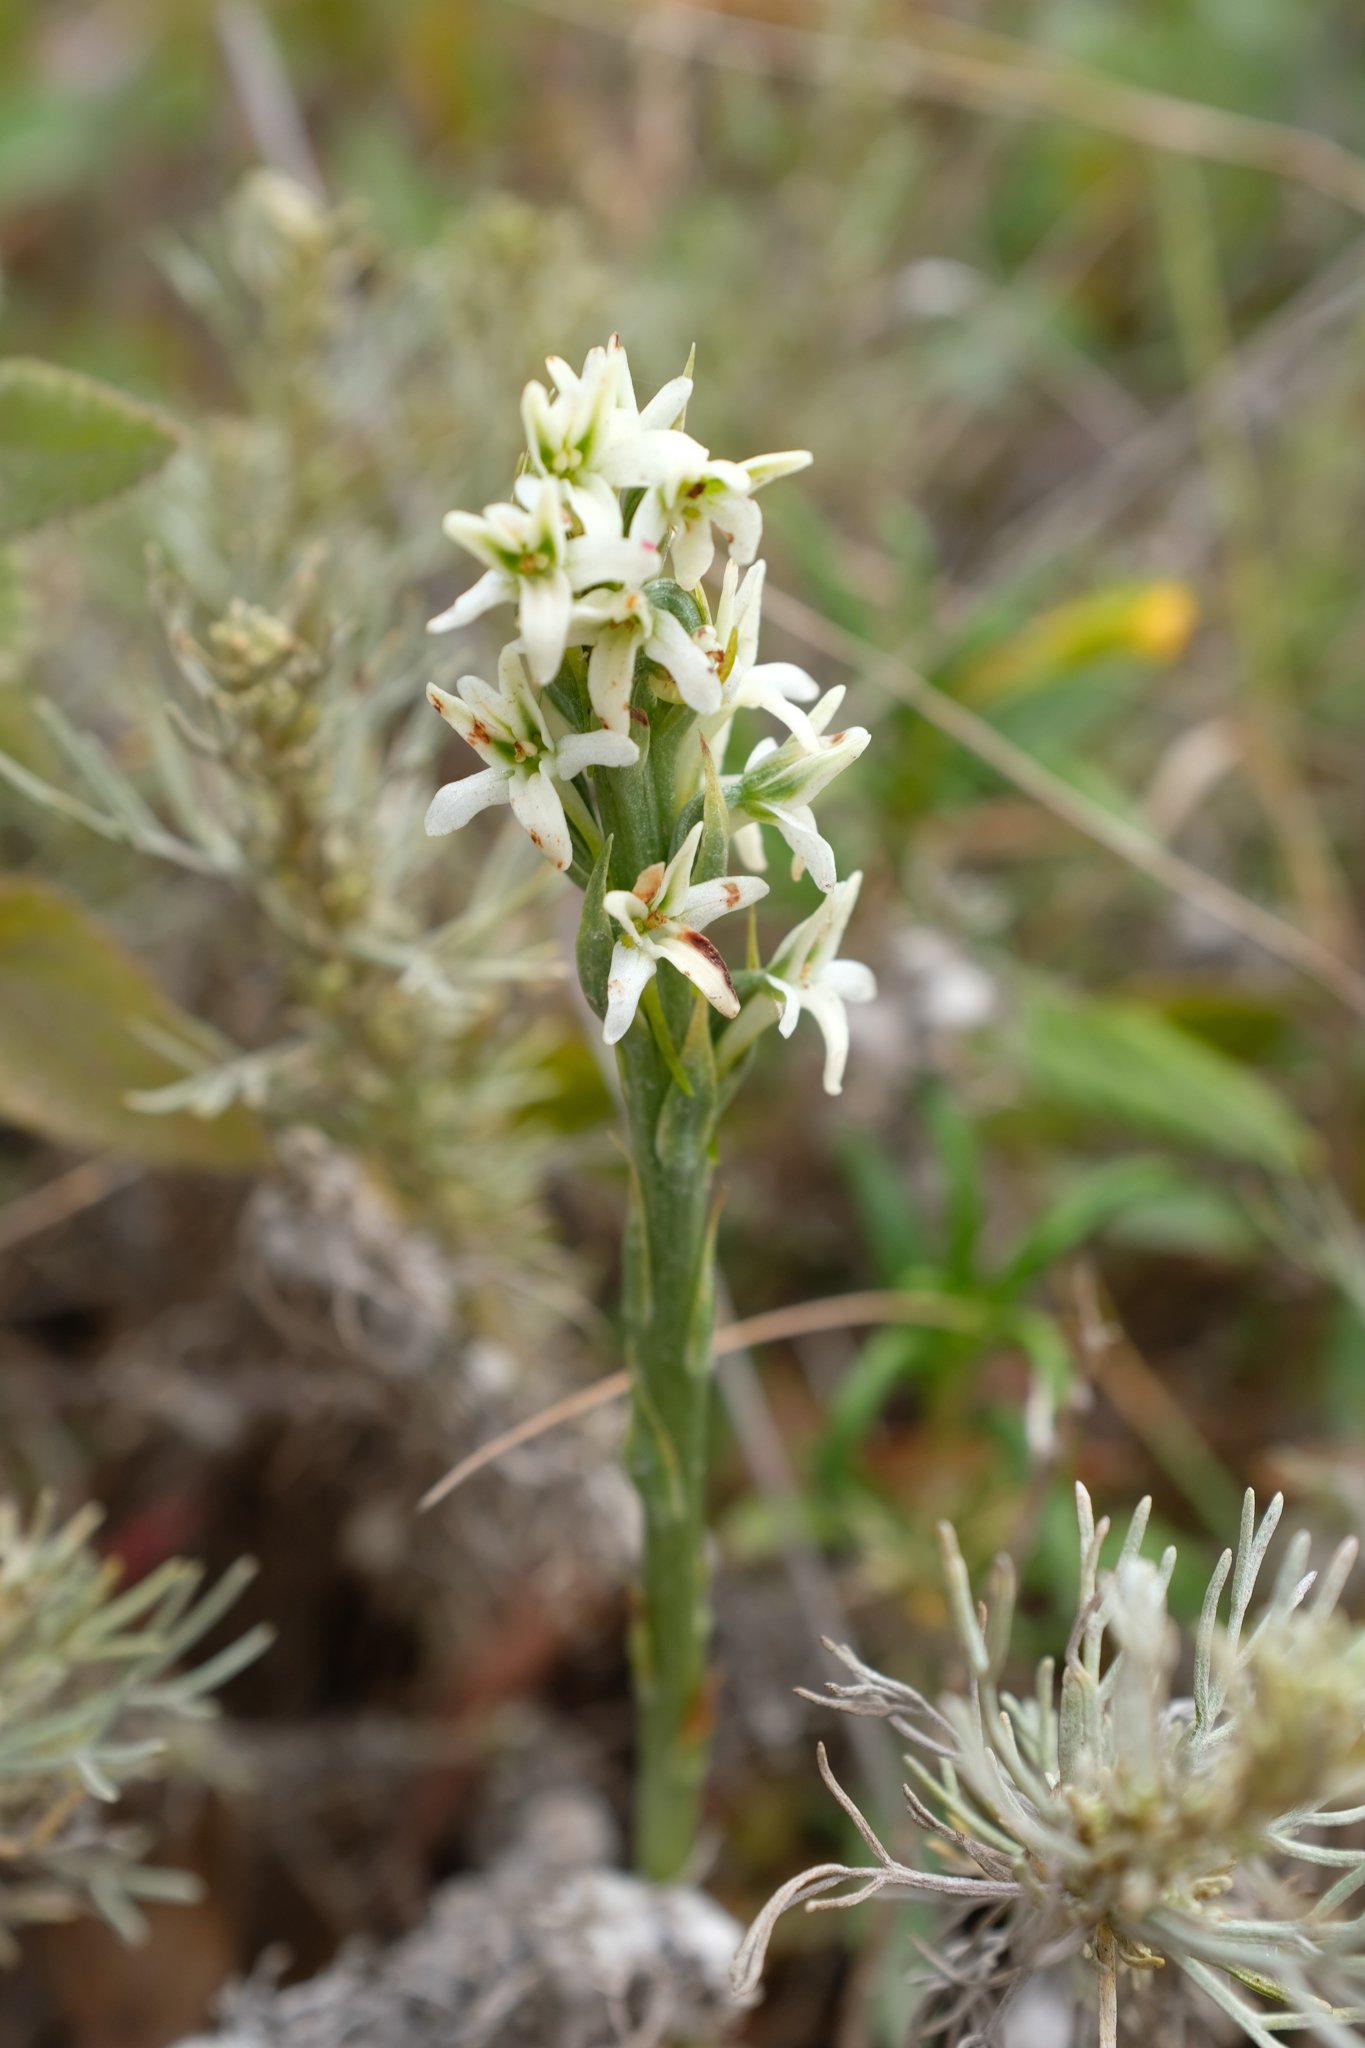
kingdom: Plantae
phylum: Tracheophyta
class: Liliopsida
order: Asparagales
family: Orchidaceae
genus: Platanthera
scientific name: Platanthera elegans
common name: Coast piperia
